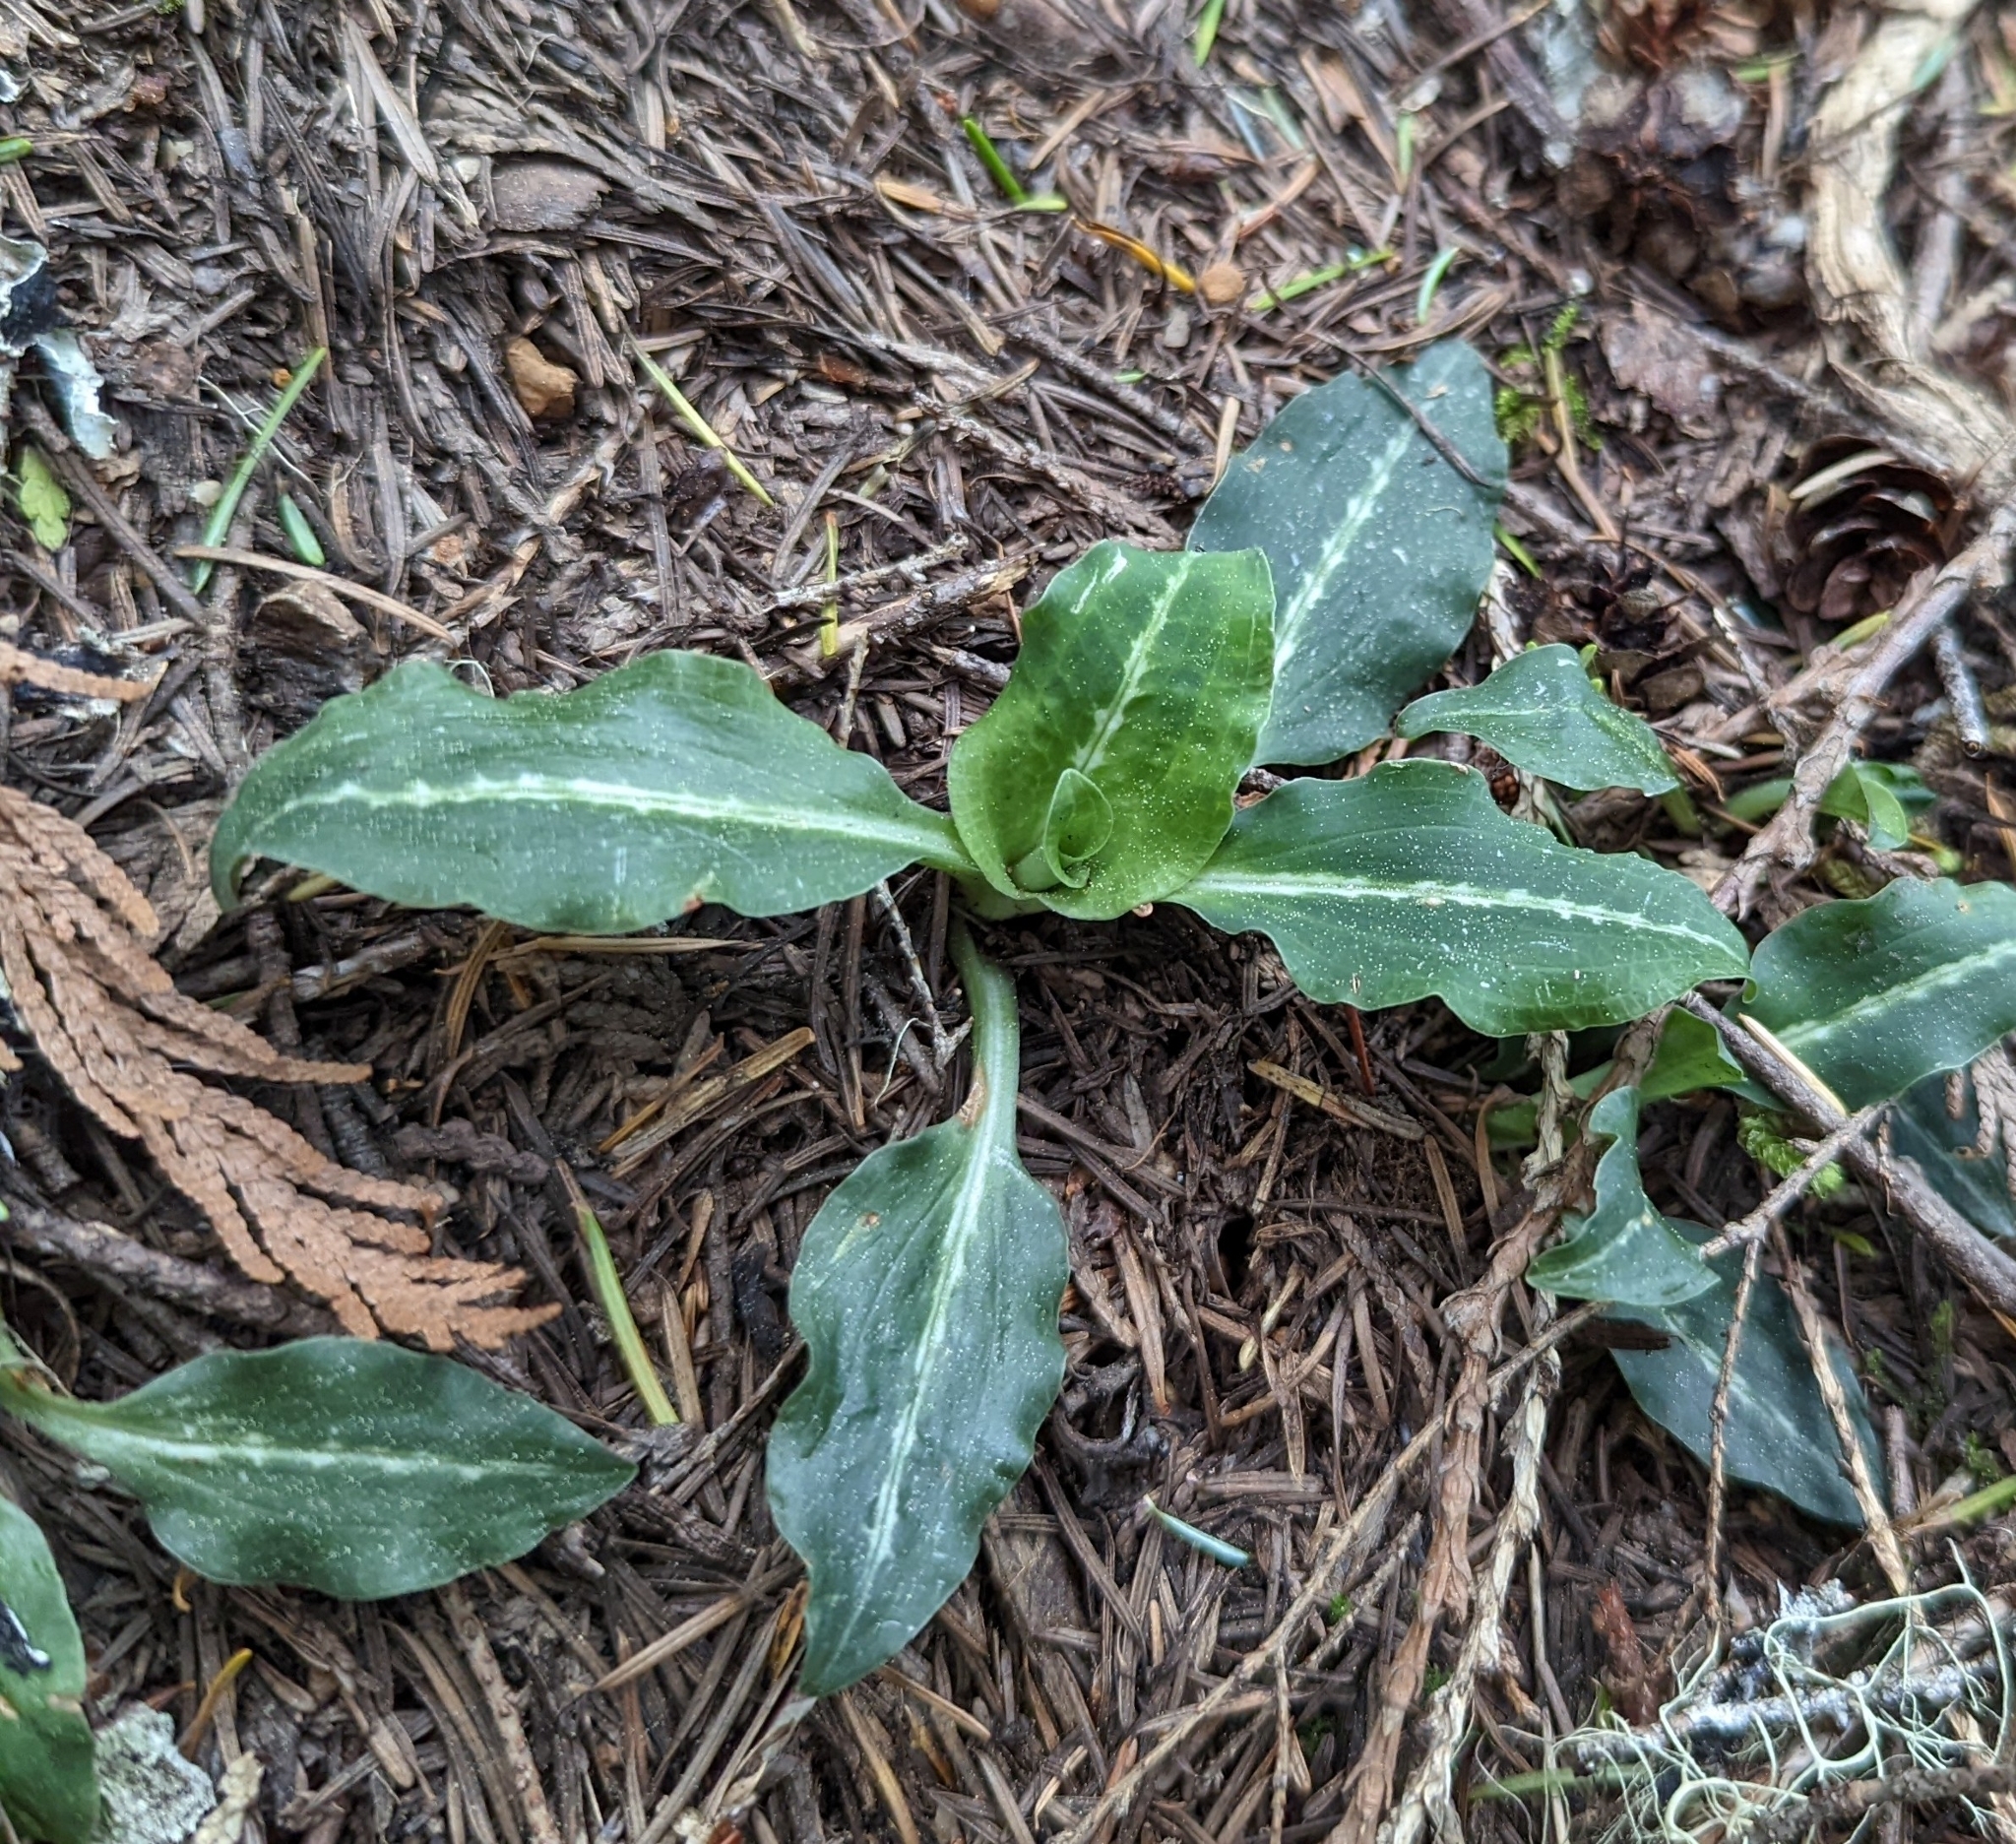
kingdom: Plantae
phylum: Tracheophyta
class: Liliopsida
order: Asparagales
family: Orchidaceae
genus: Goodyera
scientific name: Goodyera oblongifolia
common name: Giant rattlesnake-plantain
